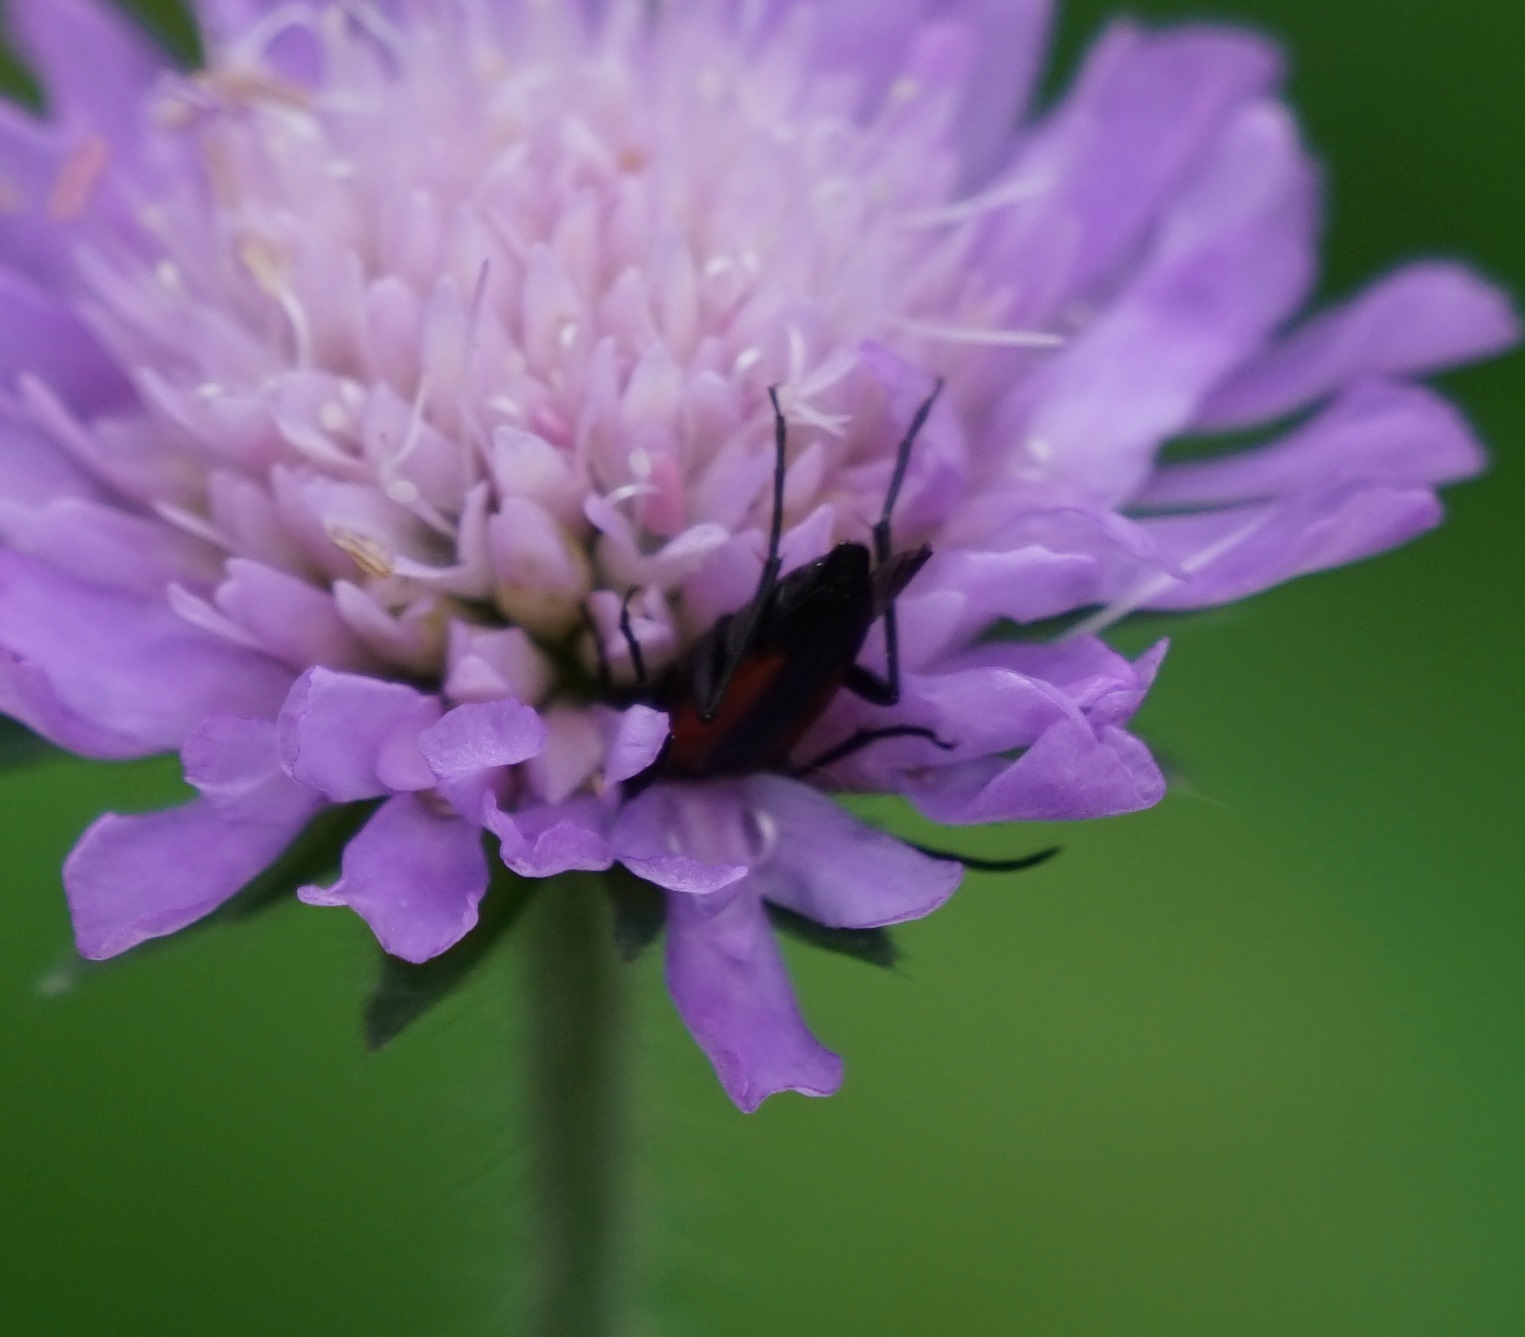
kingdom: Animalia
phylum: Arthropoda
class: Insecta
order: Coleoptera
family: Cerambycidae
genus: Stenurella
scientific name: Stenurella melanura
